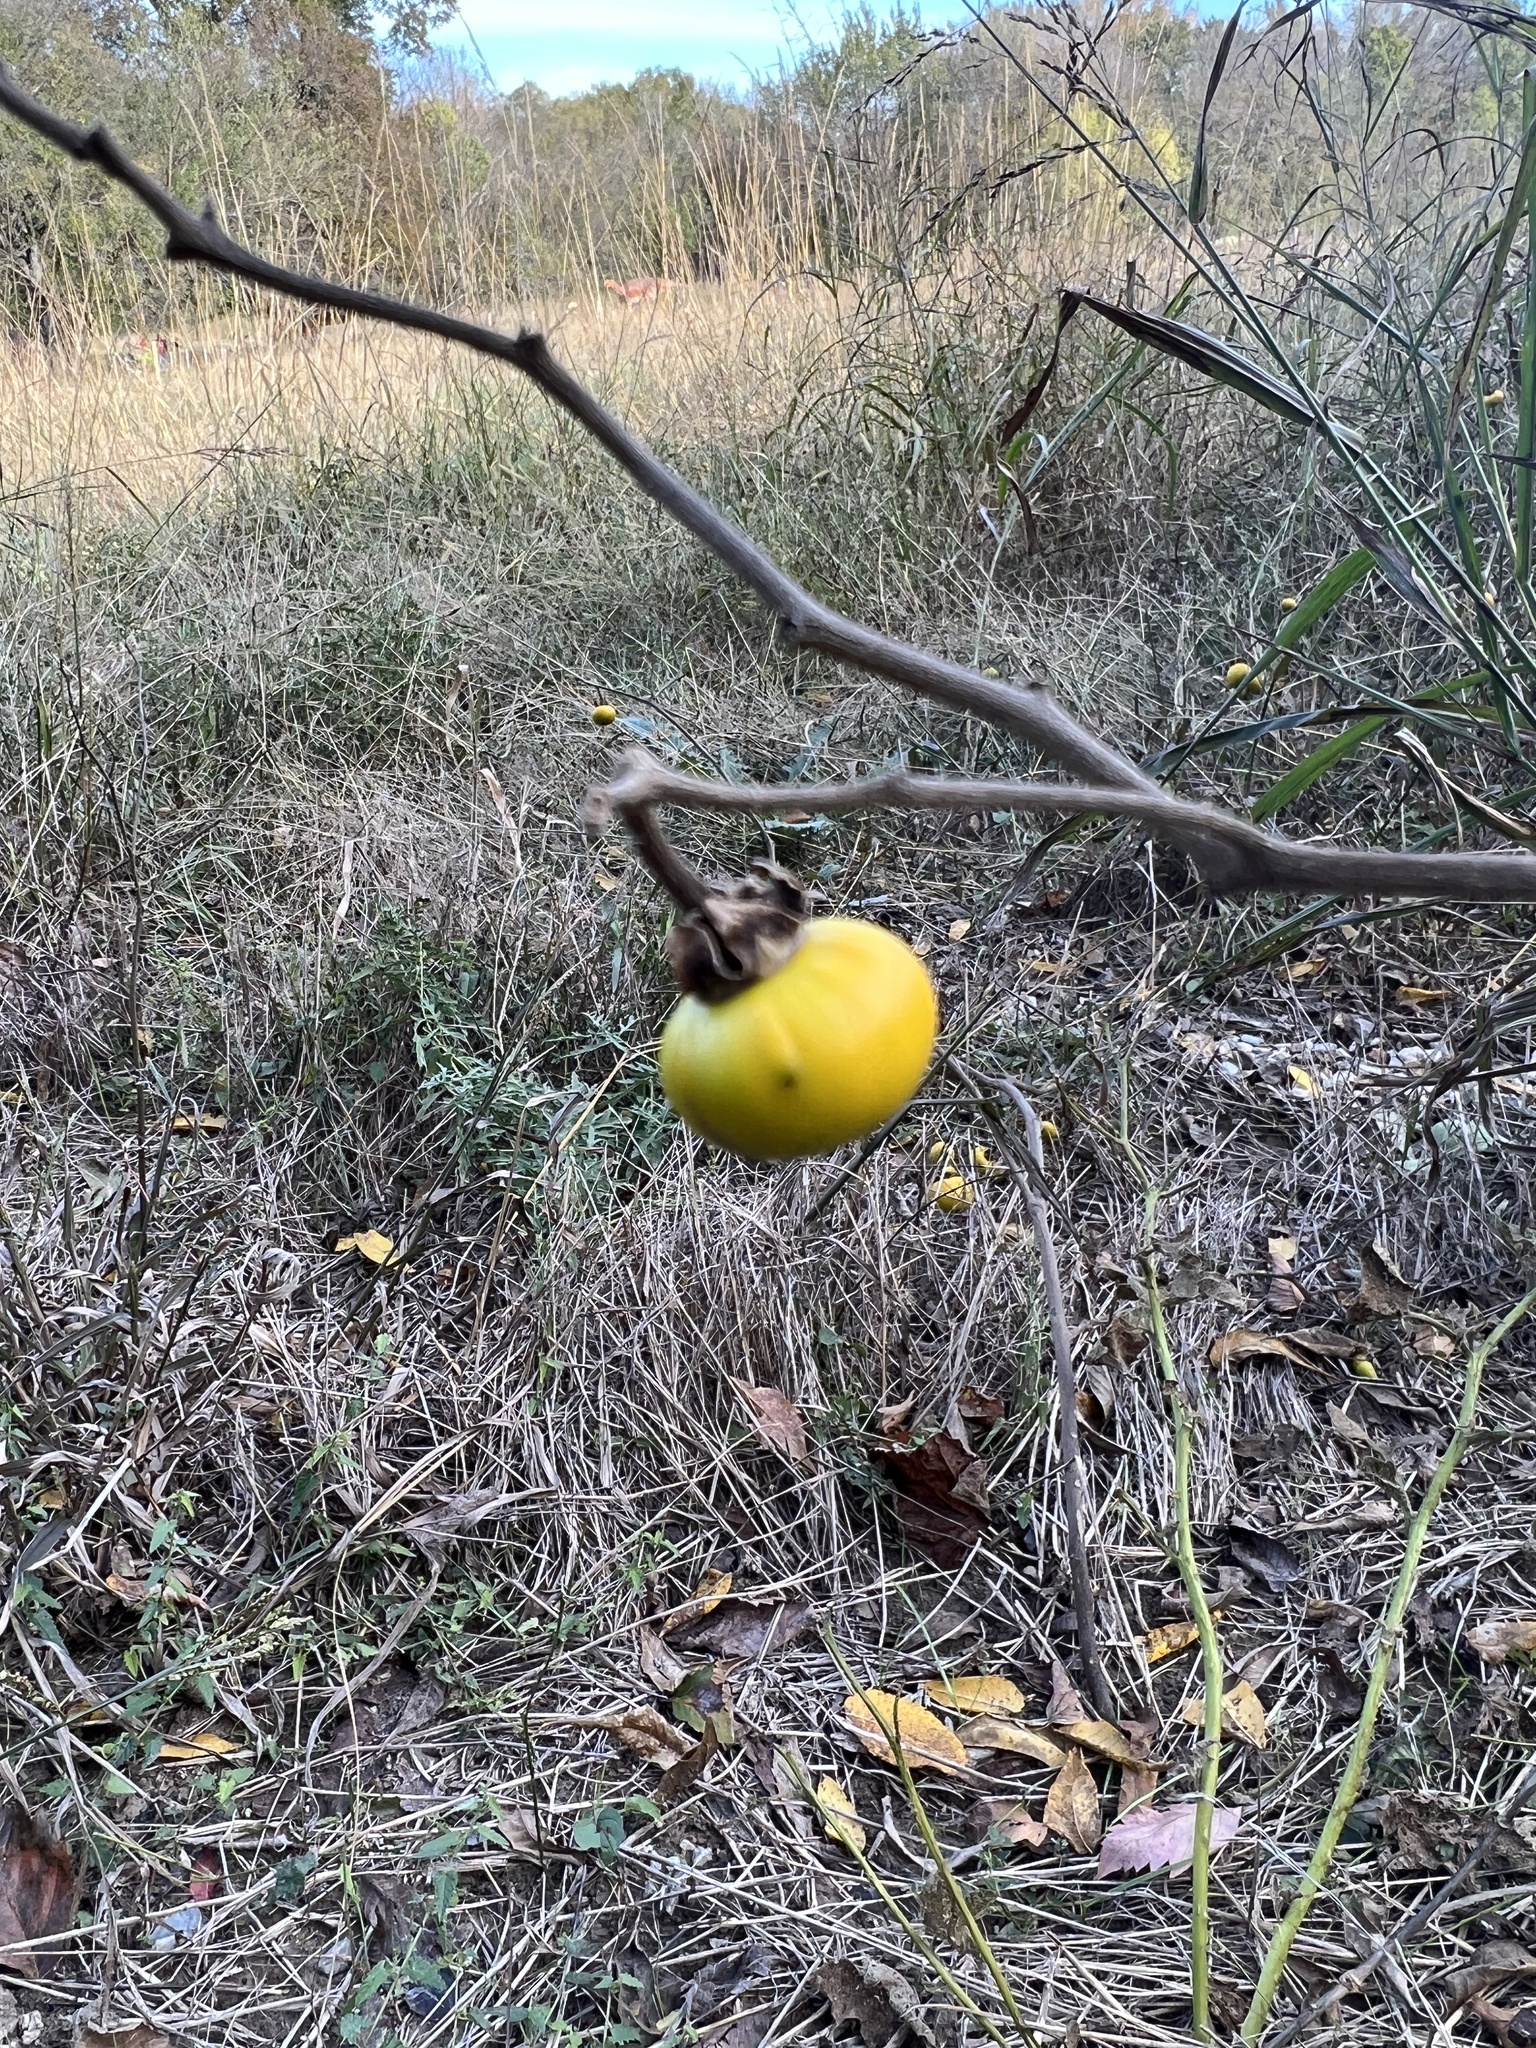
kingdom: Plantae
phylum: Tracheophyta
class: Magnoliopsida
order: Solanales
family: Solanaceae
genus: Solanum
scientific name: Solanum dimidiatum
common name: Carolina horse-nettle
